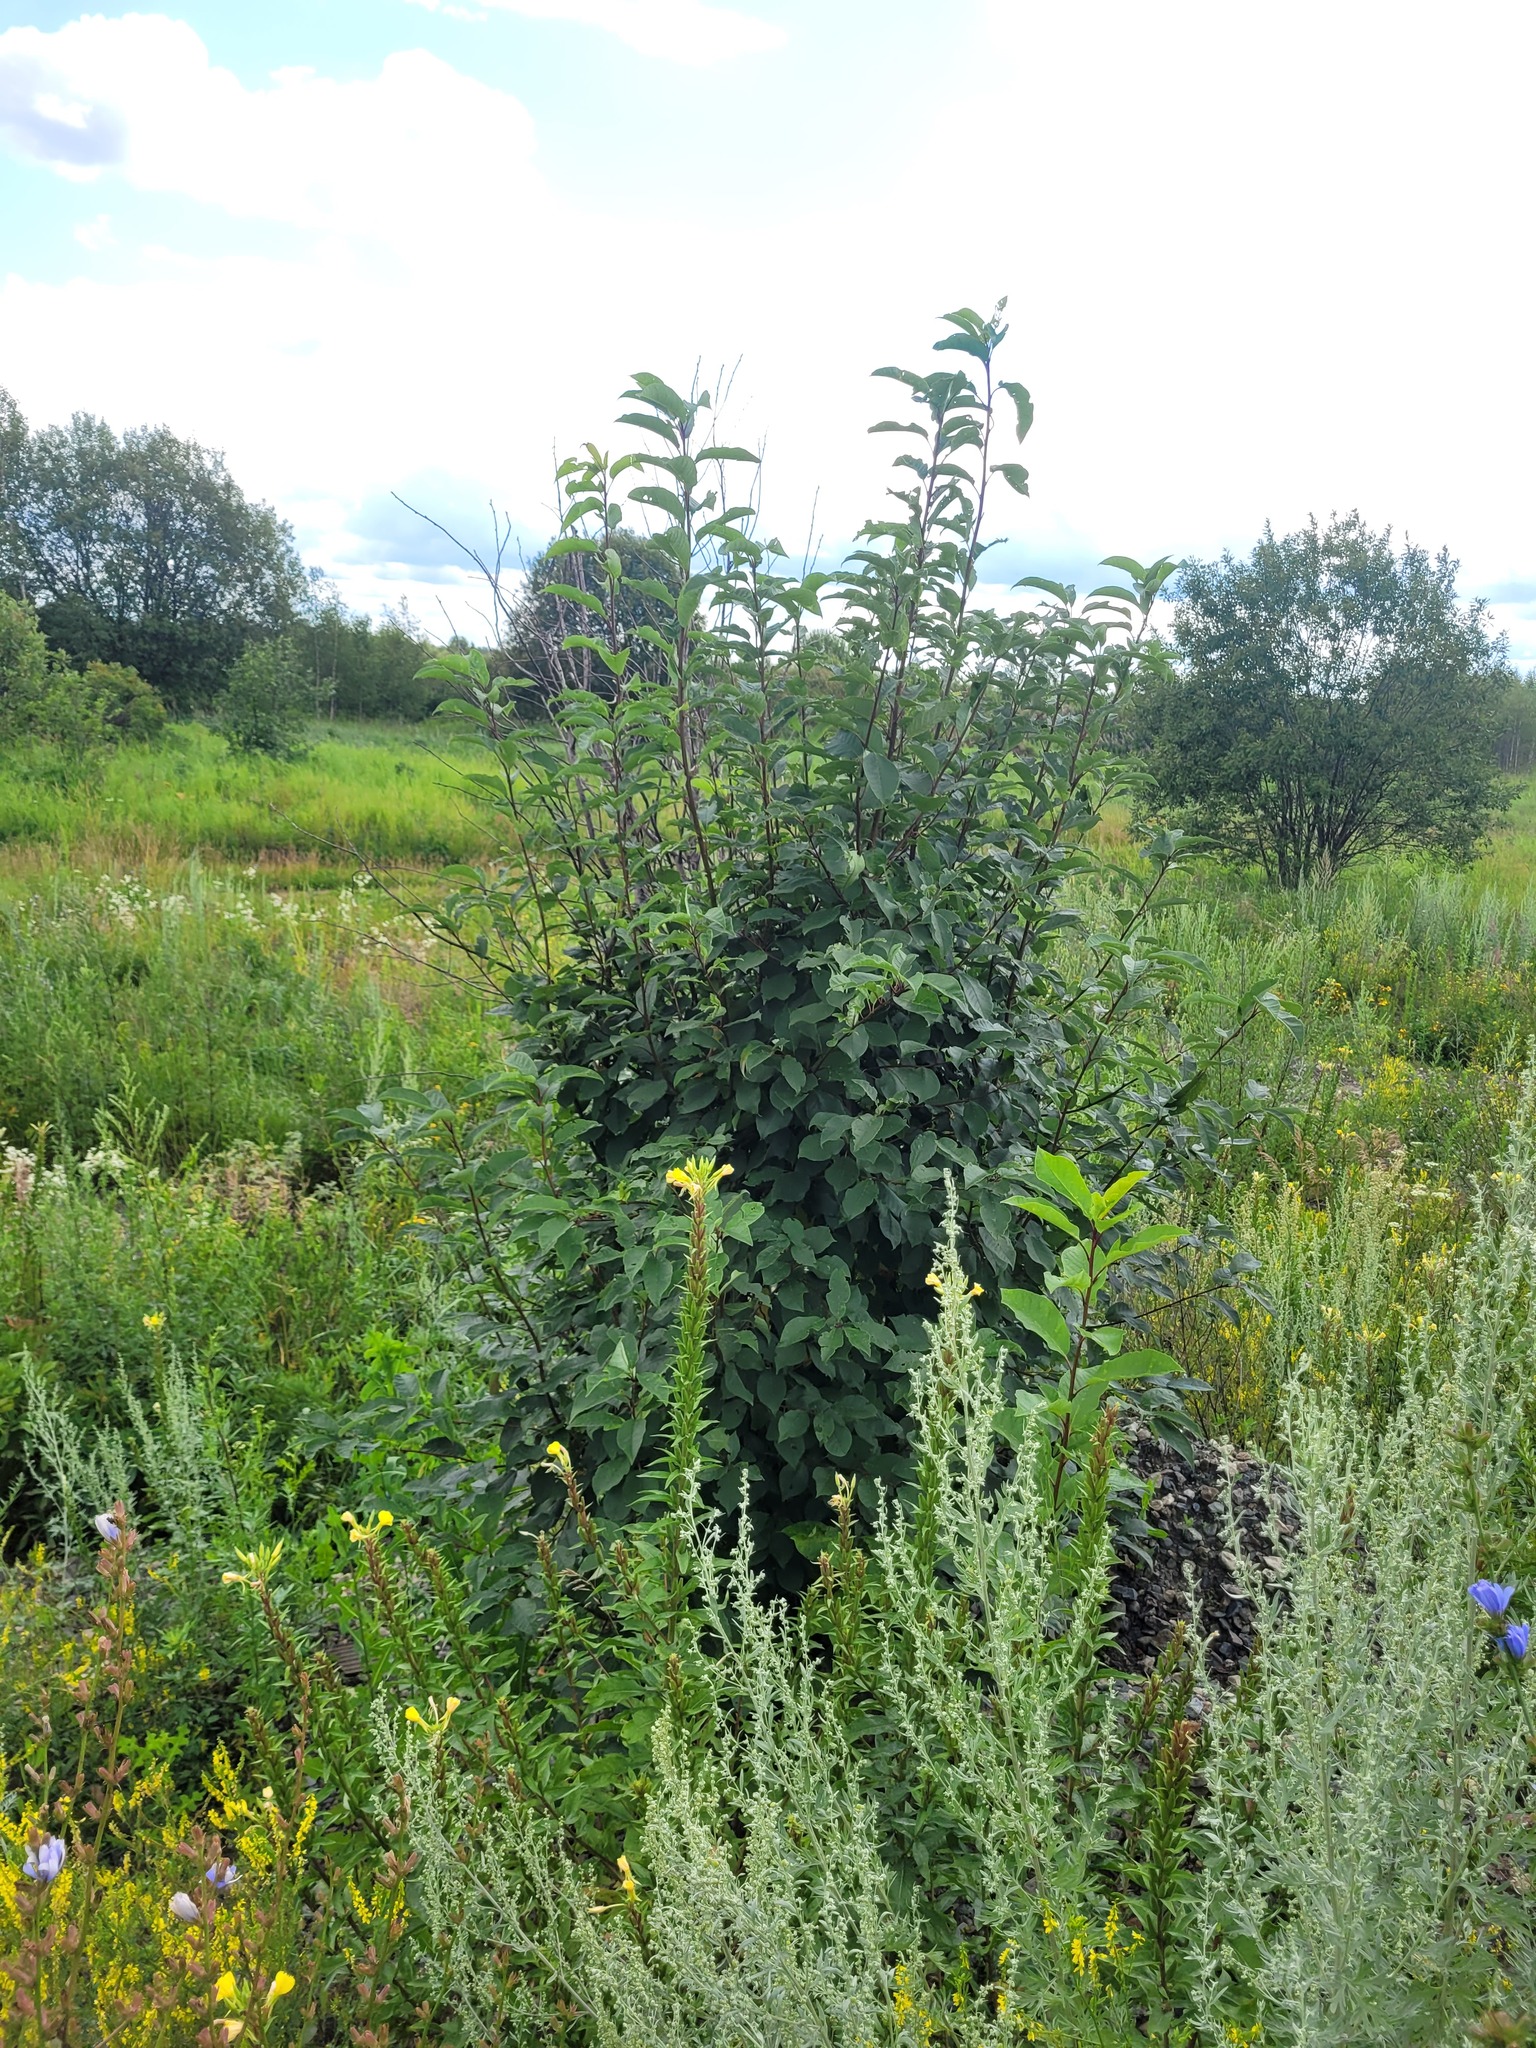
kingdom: Plantae
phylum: Tracheophyta
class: Magnoliopsida
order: Rosales
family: Rosaceae
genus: Prunus
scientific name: Prunus padus
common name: Bird cherry
